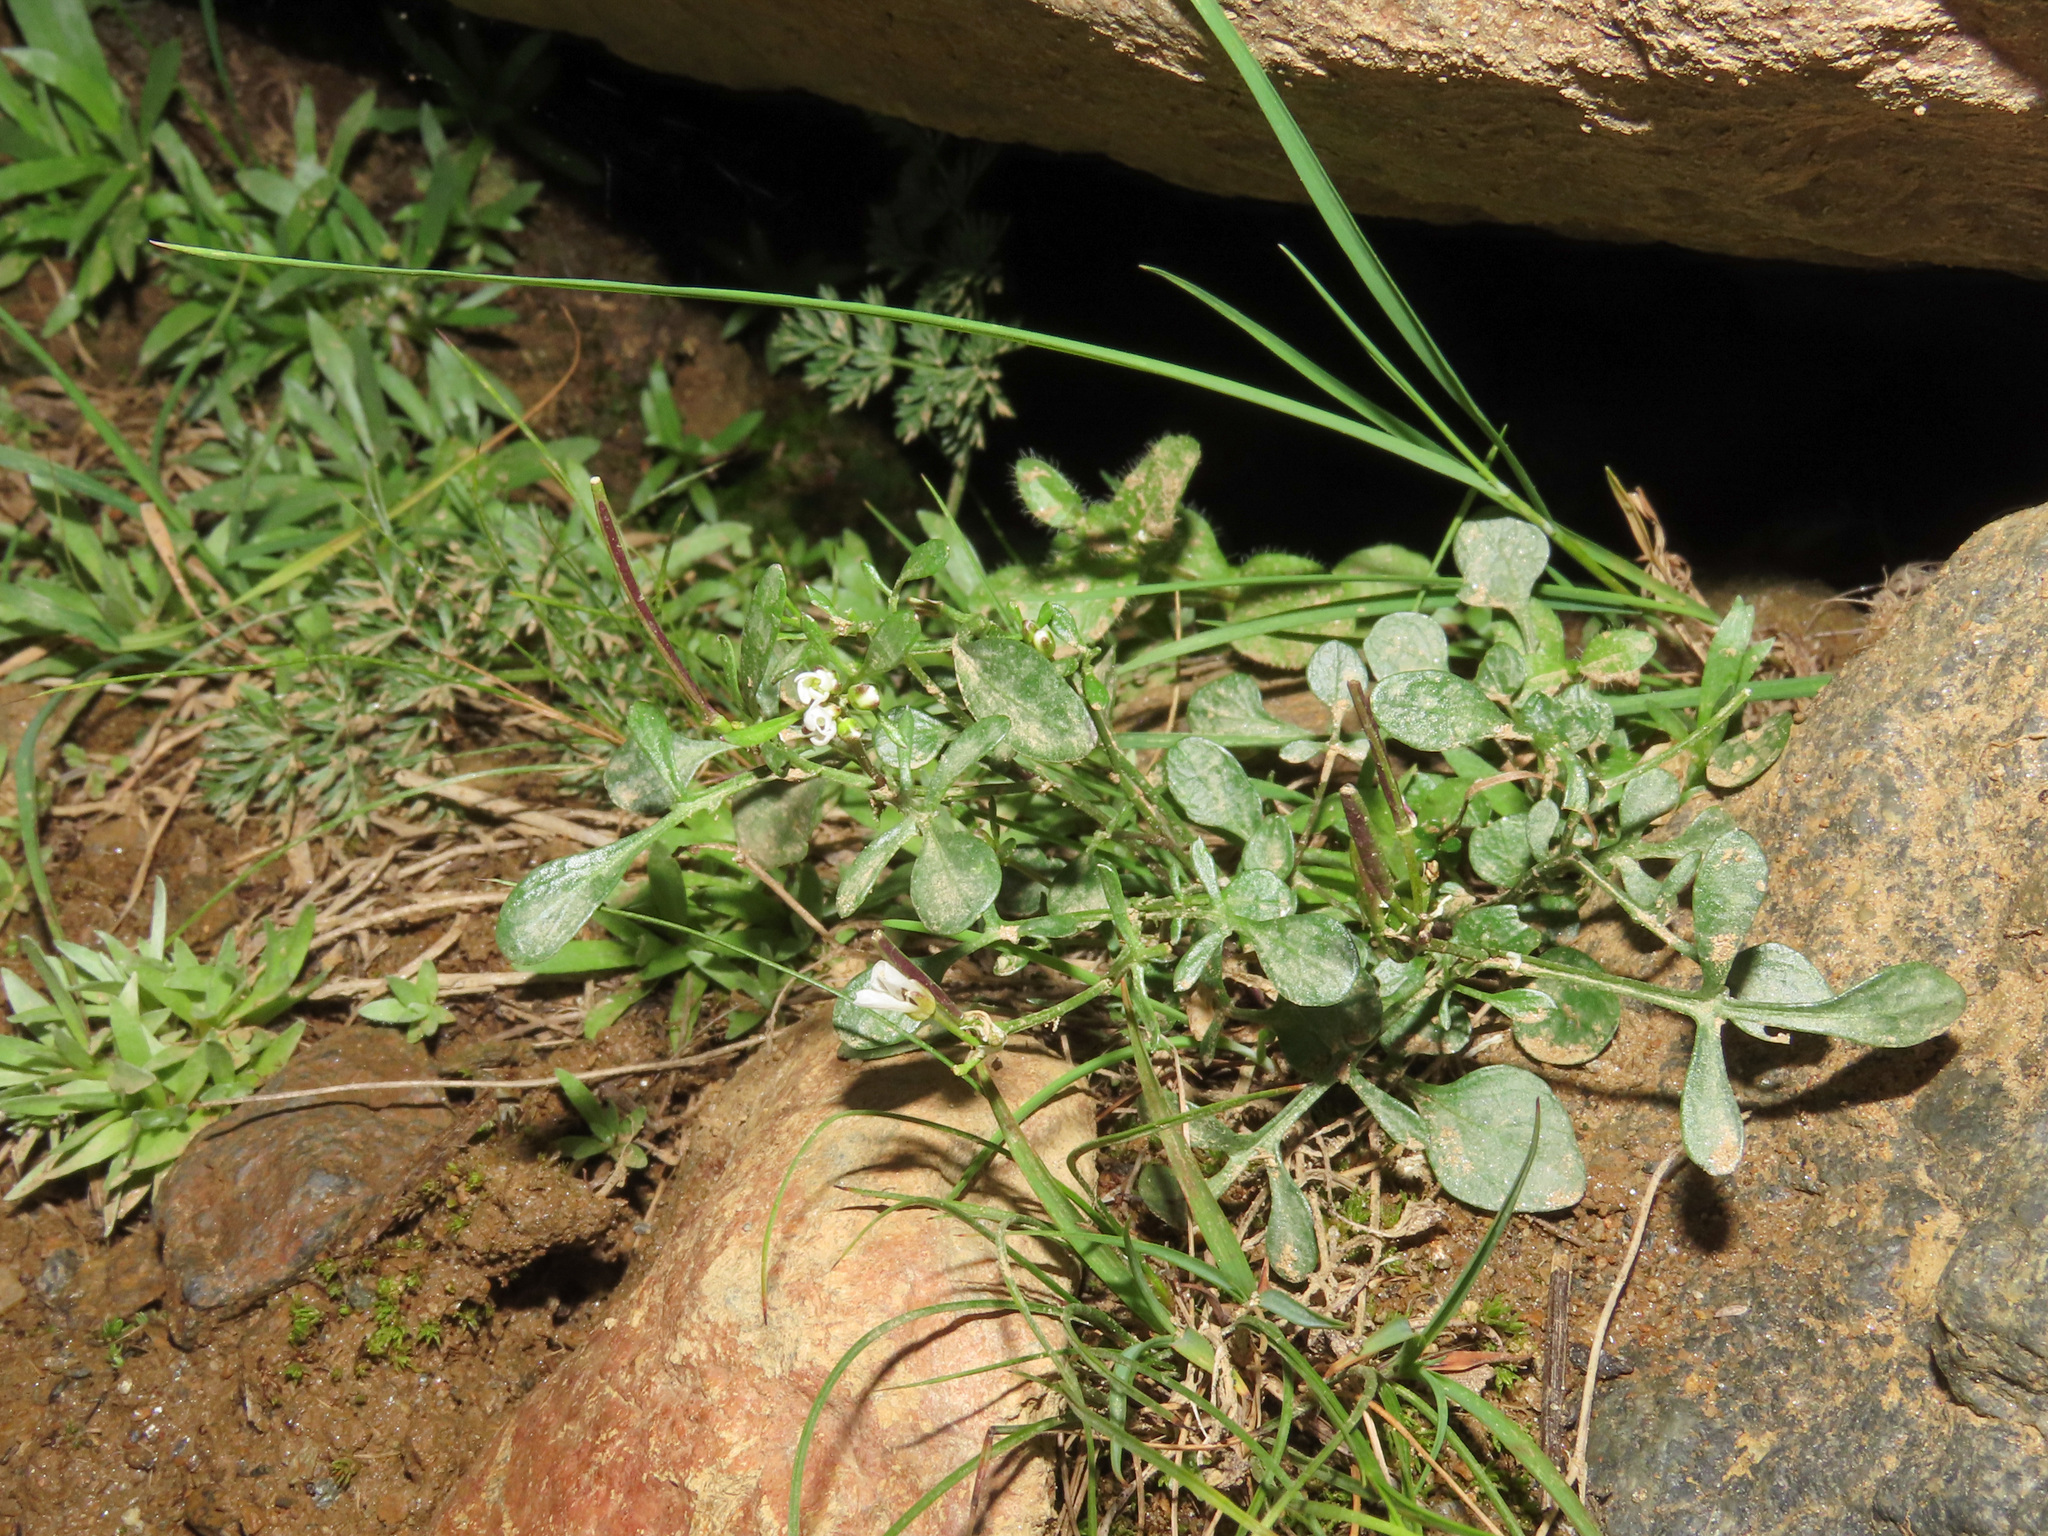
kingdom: Plantae
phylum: Tracheophyta
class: Magnoliopsida
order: Brassicales
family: Brassicaceae
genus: Cardamine
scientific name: Cardamine resedifolia
